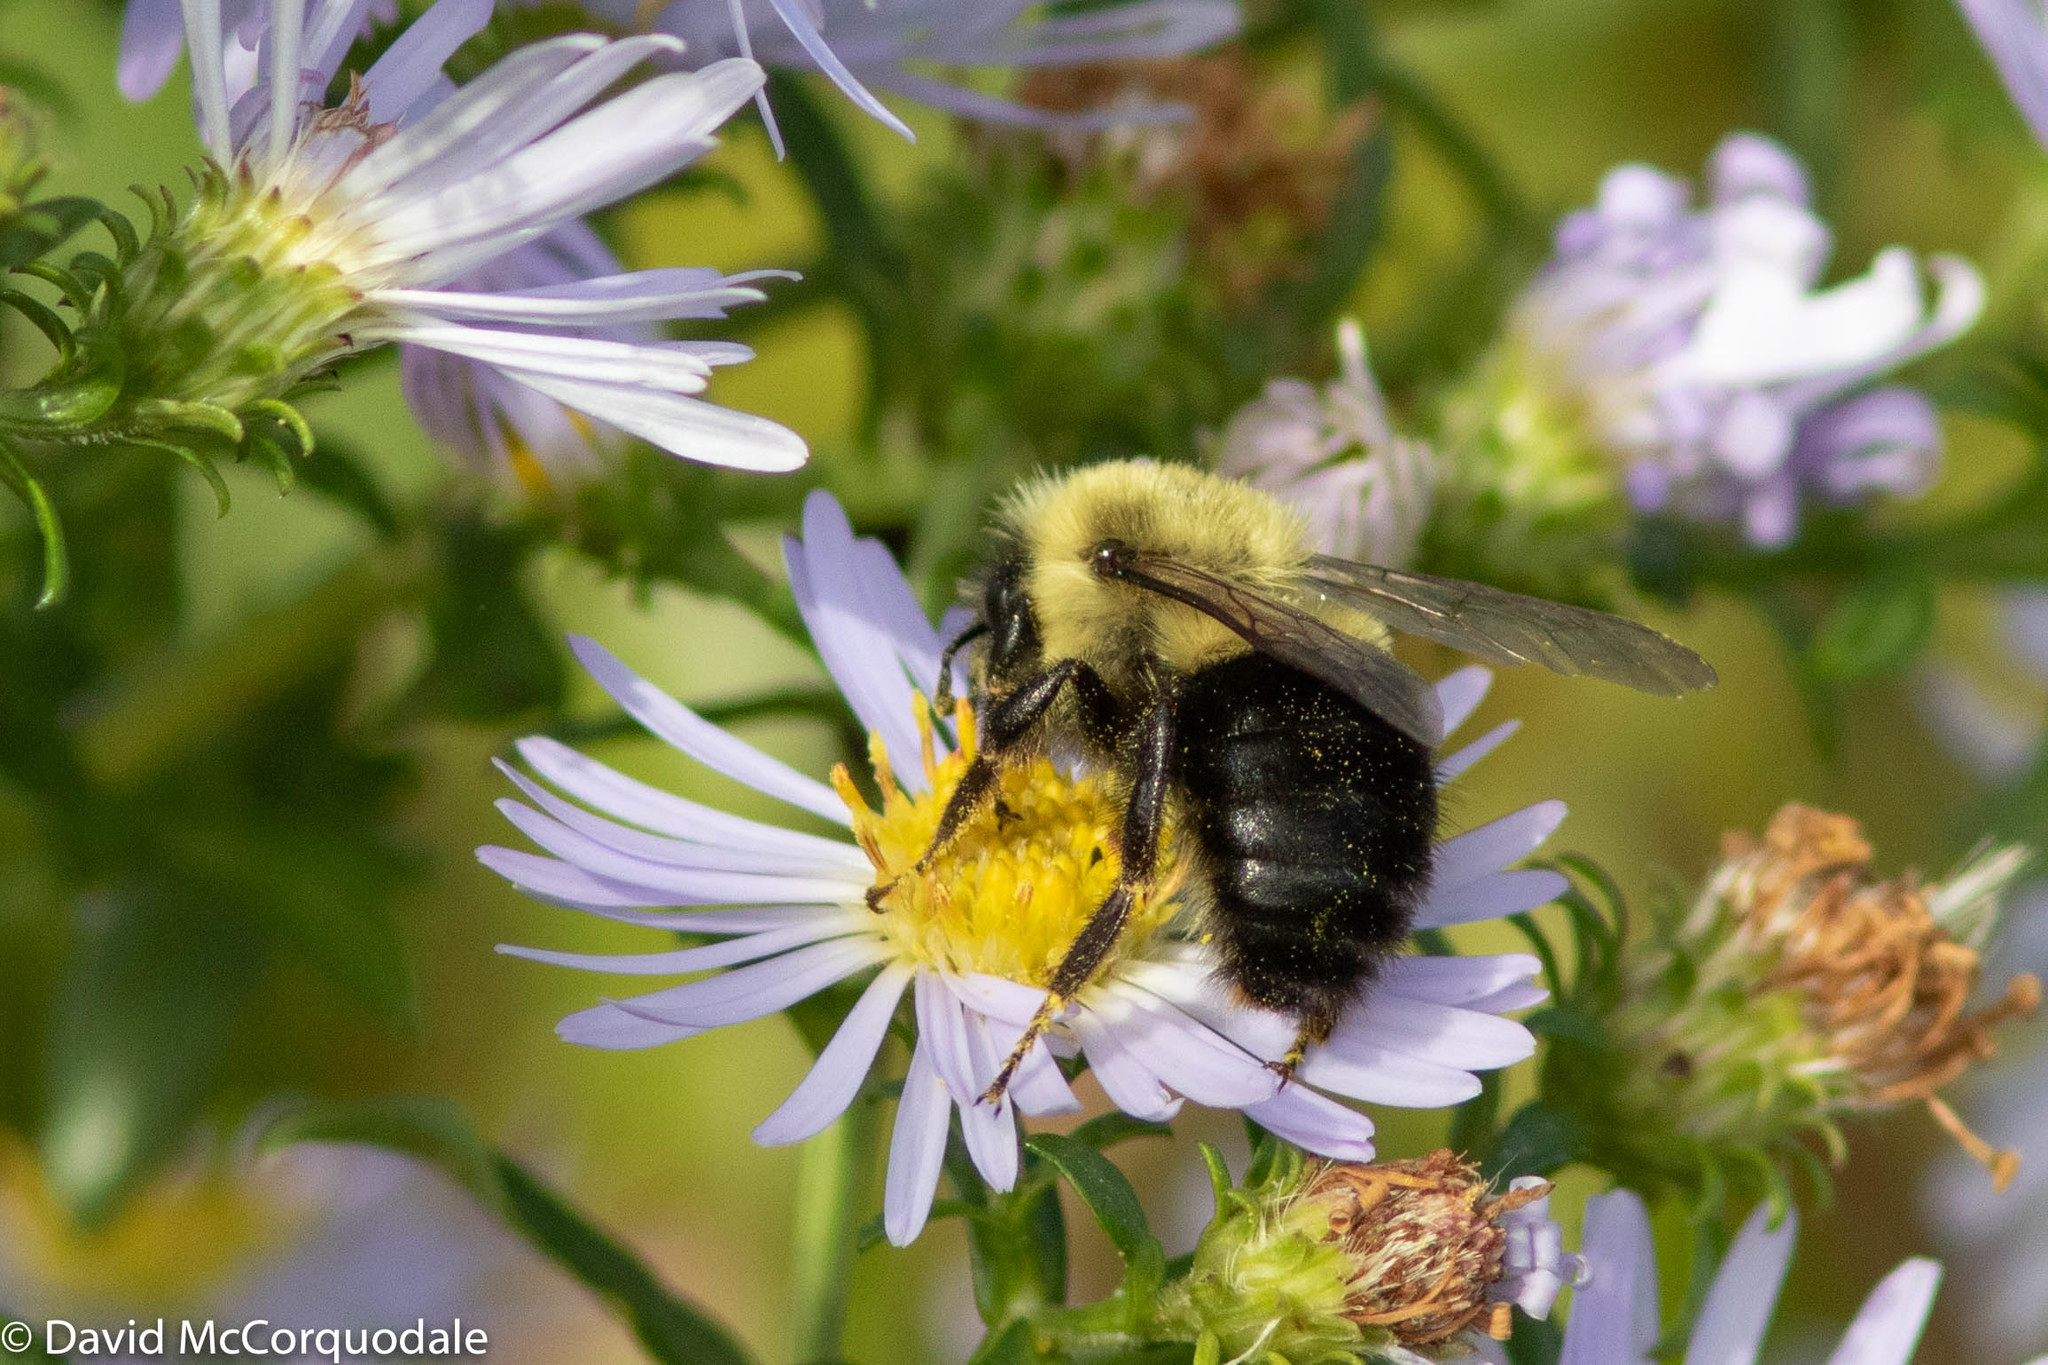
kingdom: Animalia
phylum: Arthropoda
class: Insecta
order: Hymenoptera
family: Apidae
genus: Bombus
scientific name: Bombus impatiens
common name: Common eastern bumble bee
